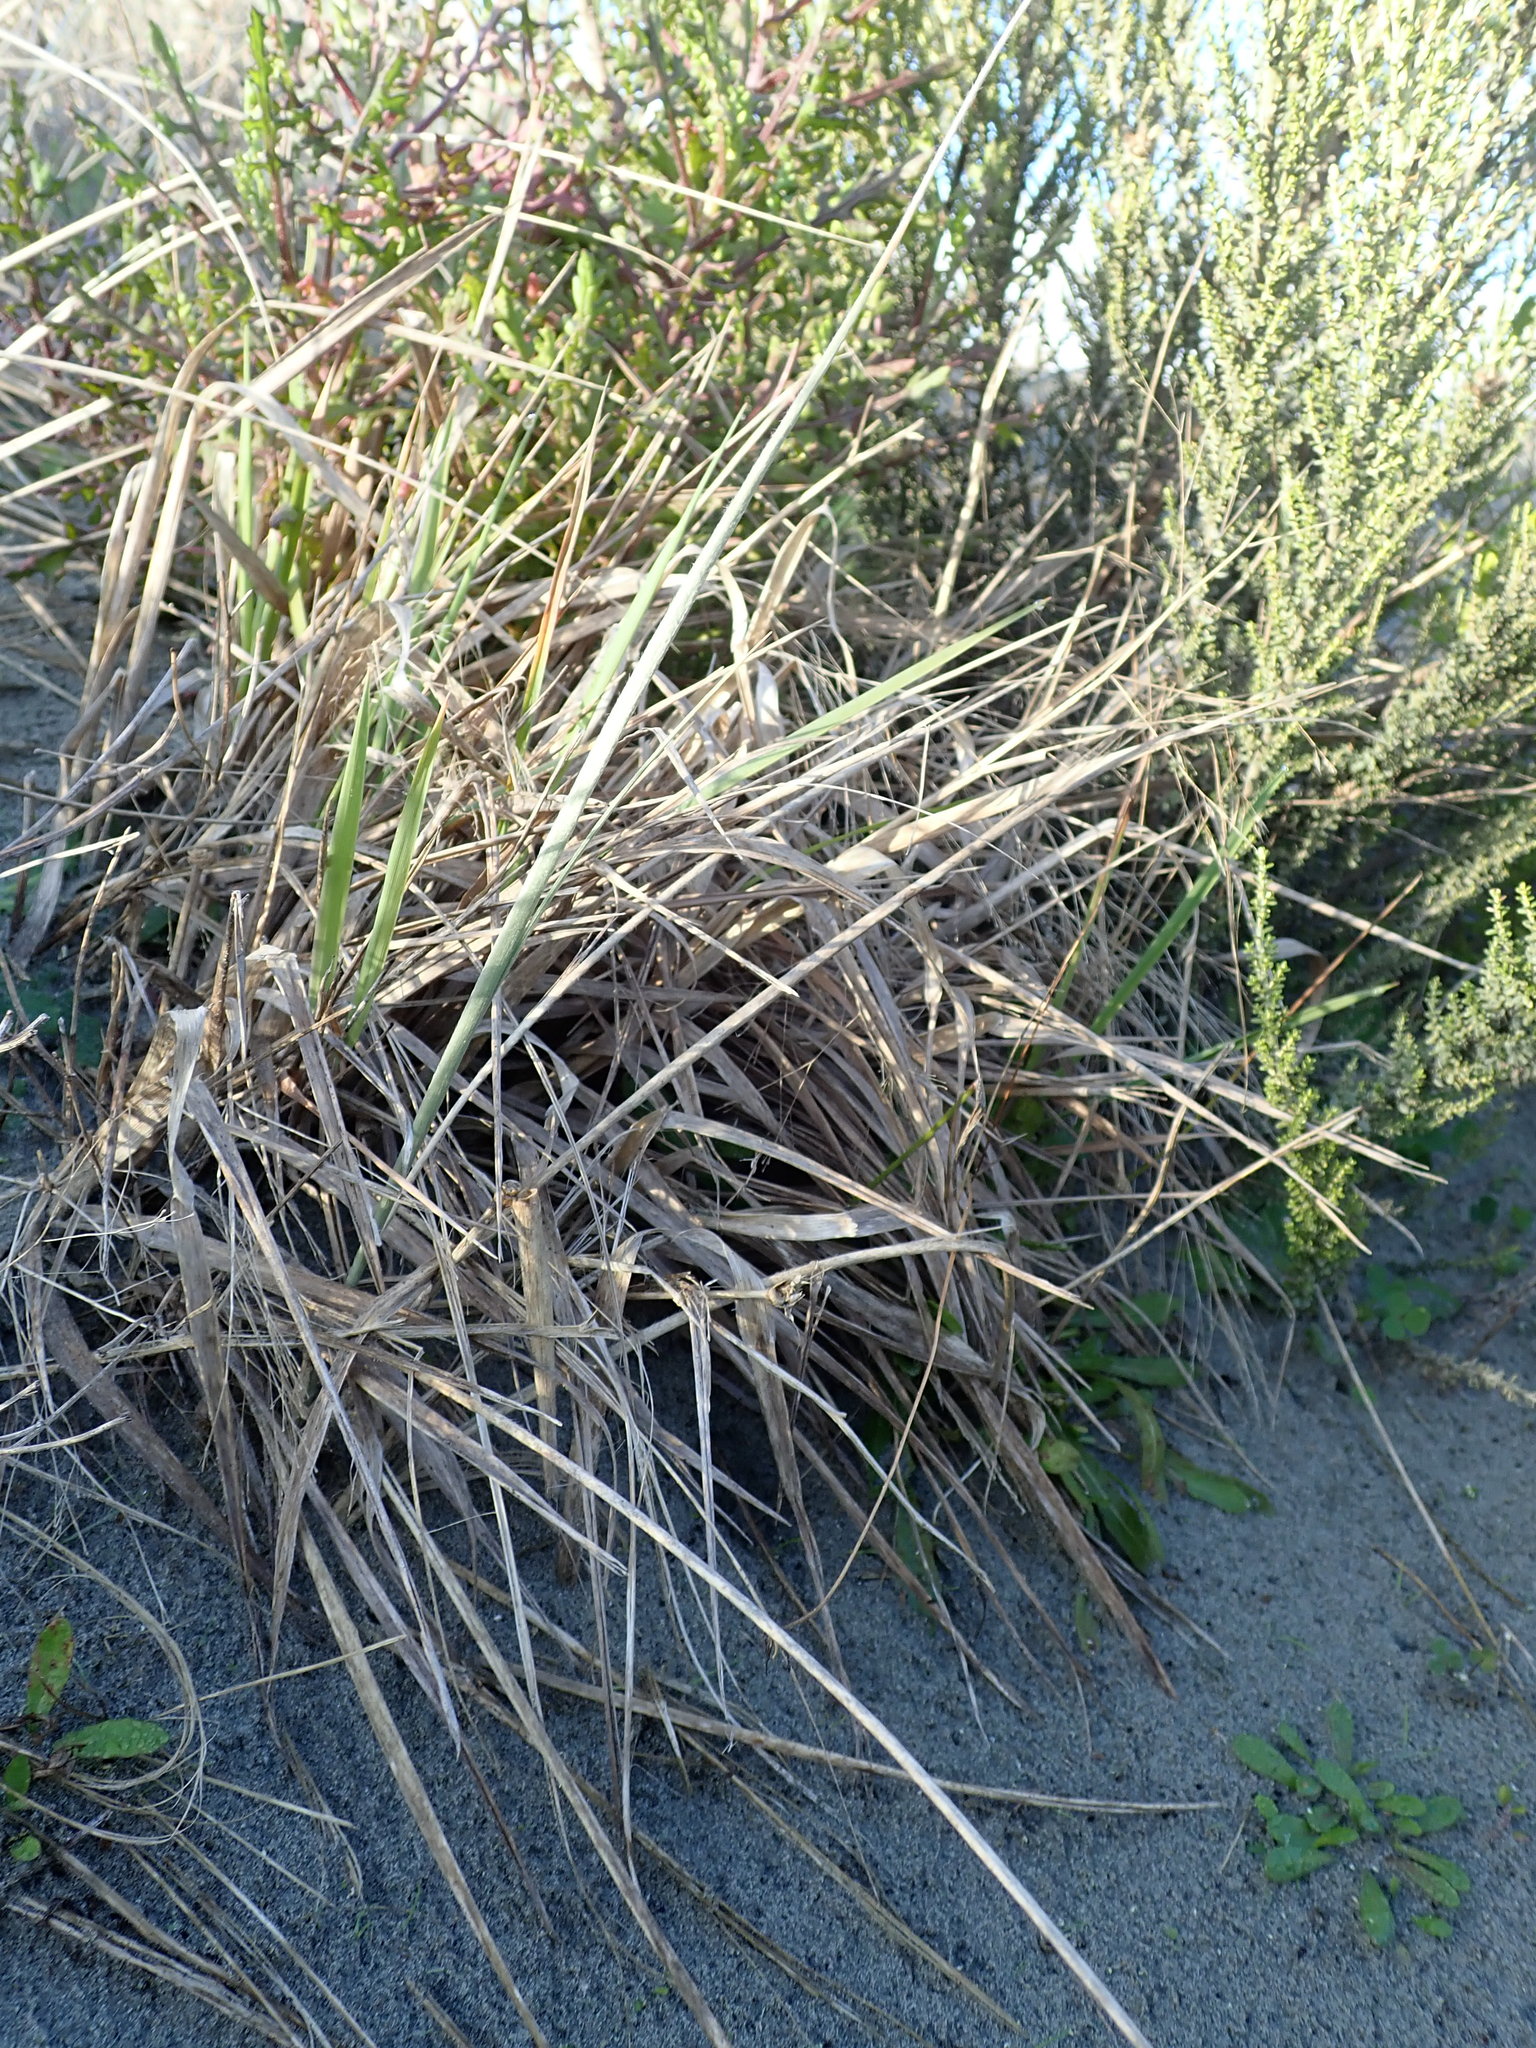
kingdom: Plantae
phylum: Tracheophyta
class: Liliopsida
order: Poales
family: Poaceae
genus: Lachnagrostis
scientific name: Lachnagrostis billardierei
